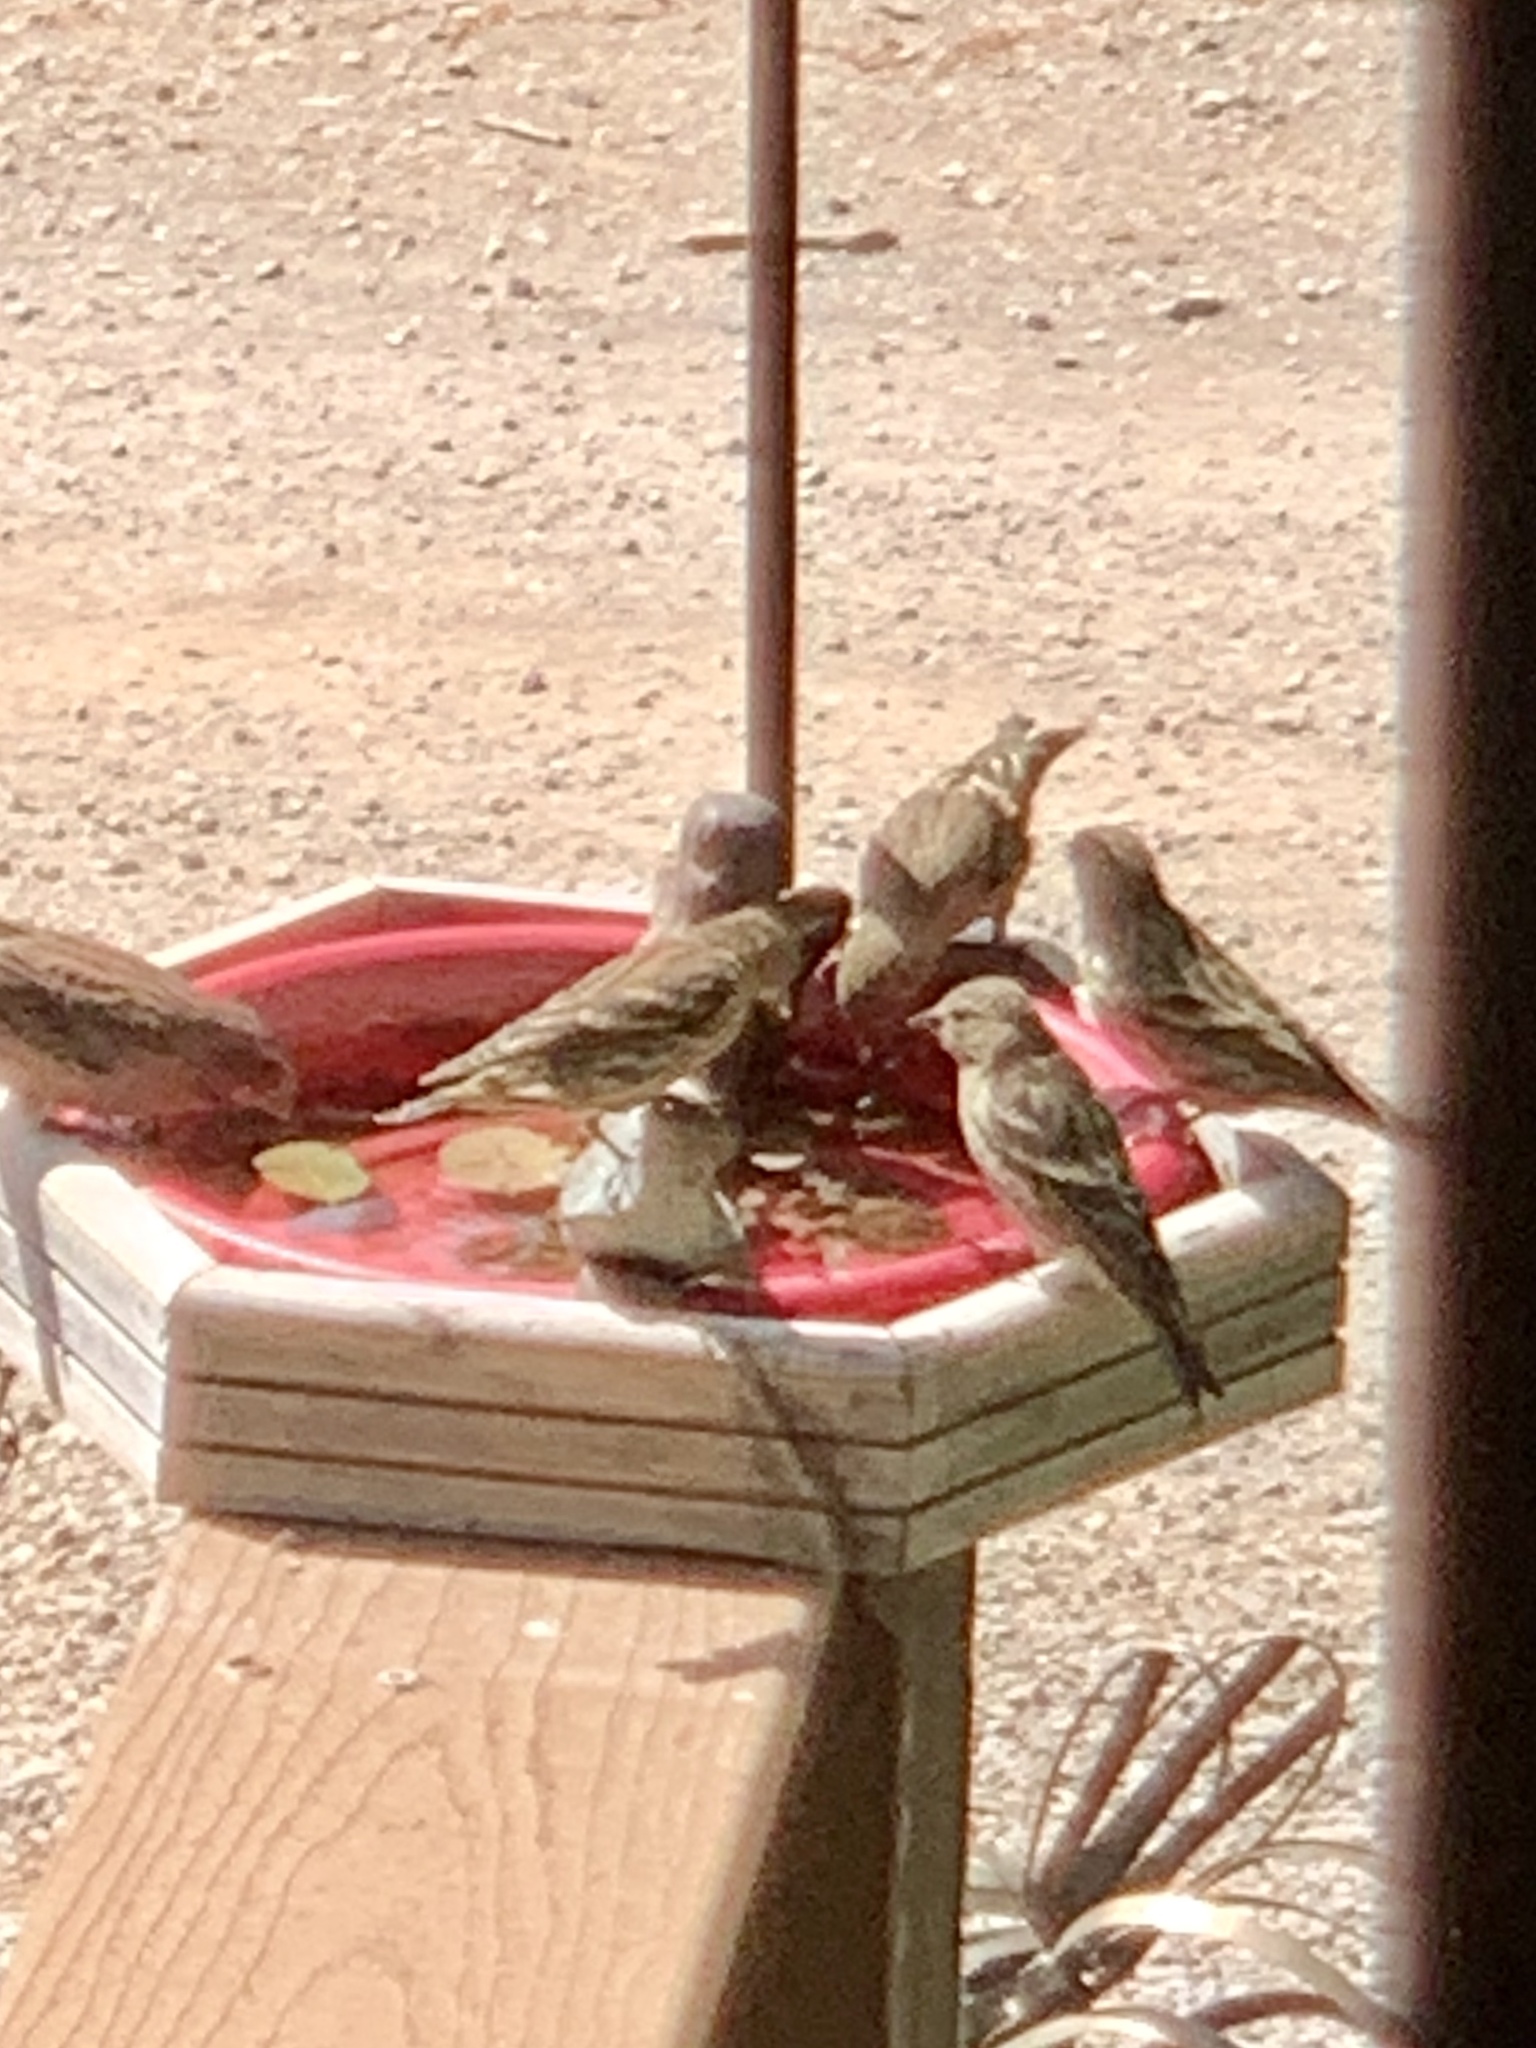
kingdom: Animalia
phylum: Chordata
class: Aves
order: Passeriformes
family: Fringillidae
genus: Spinus
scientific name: Spinus pinus
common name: Pine siskin
